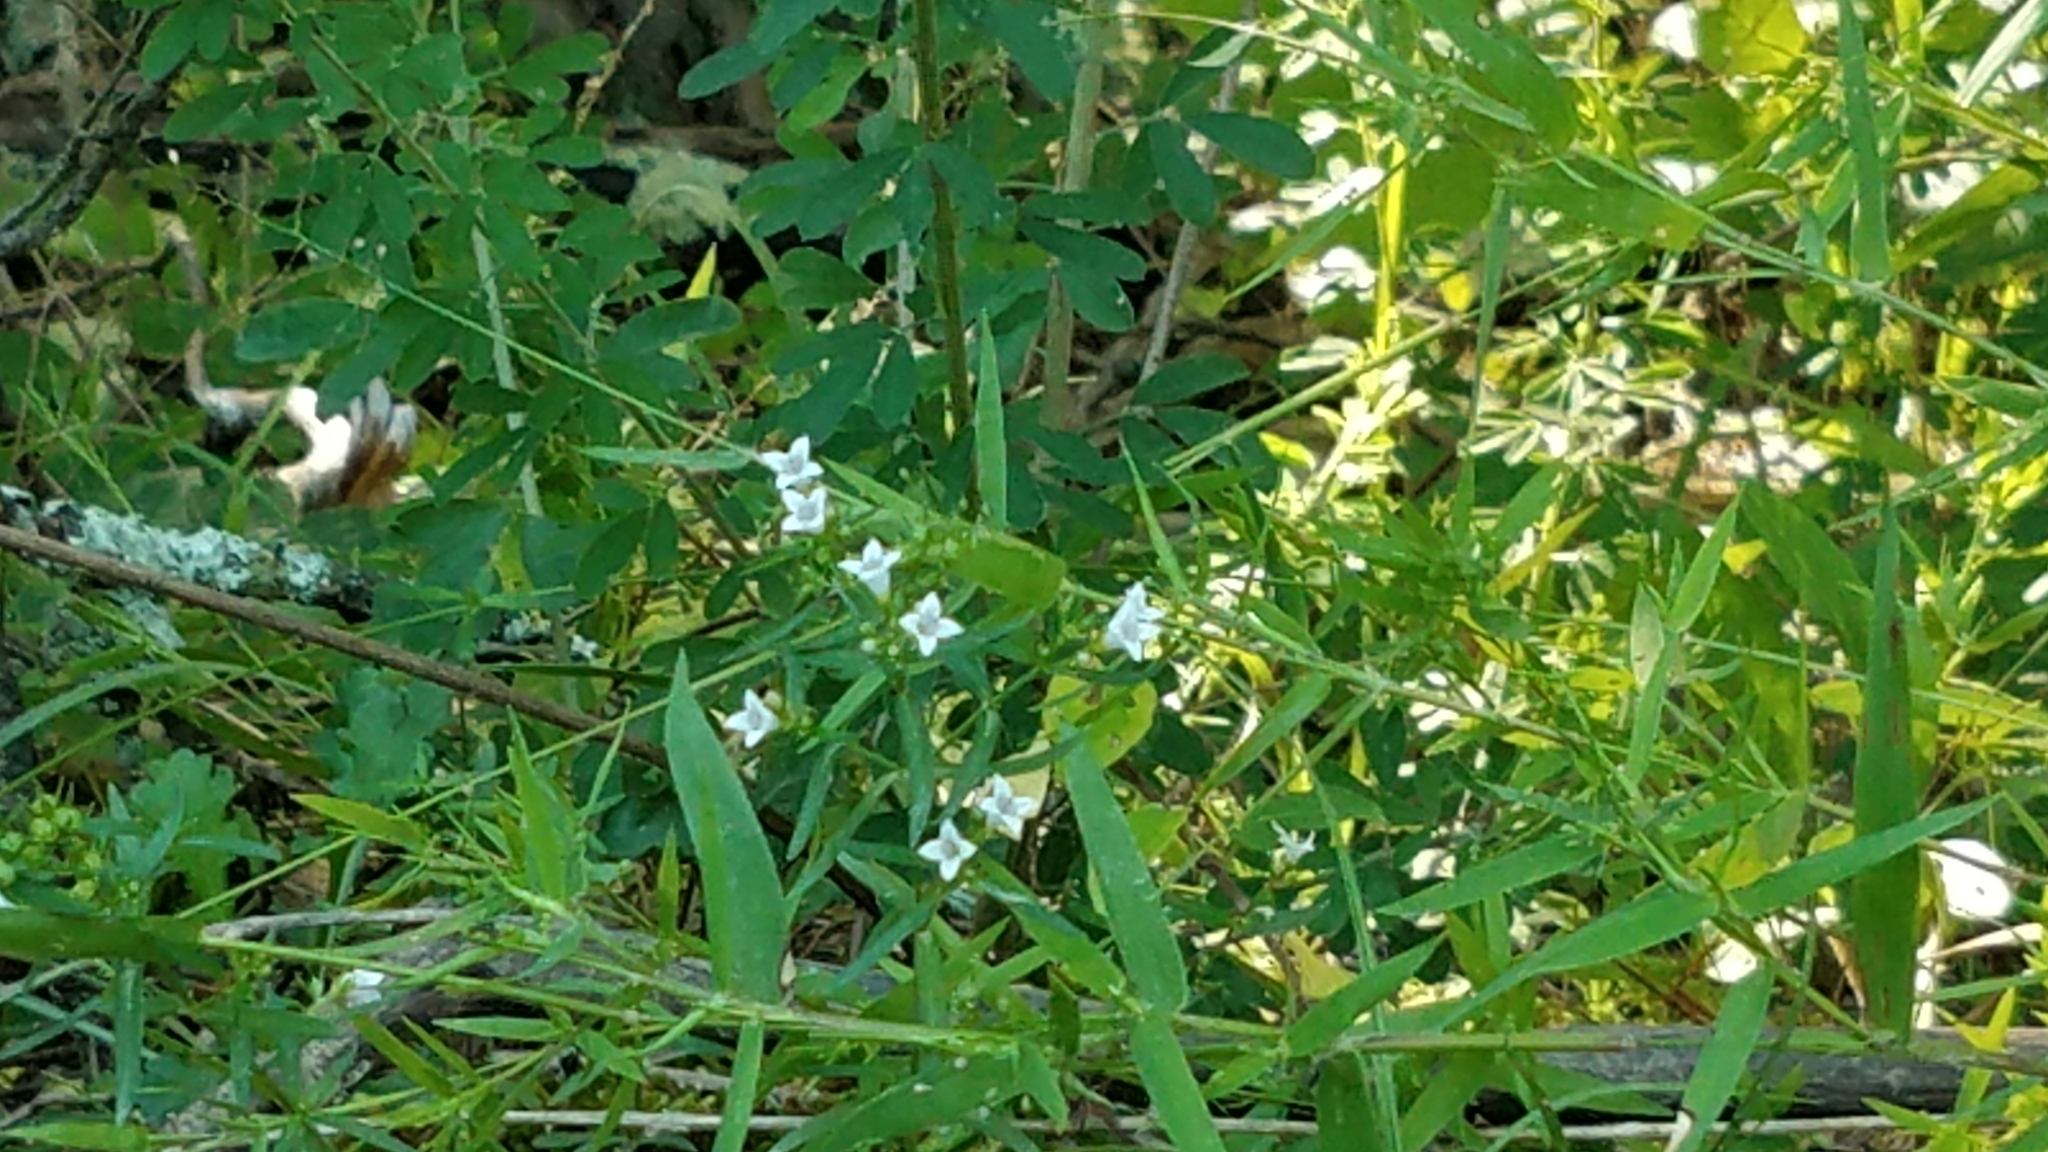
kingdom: Plantae
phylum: Tracheophyta
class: Magnoliopsida
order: Gentianales
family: Rubiaceae
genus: Houstonia
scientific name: Houstonia longifolia
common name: Long-leaved bluets
